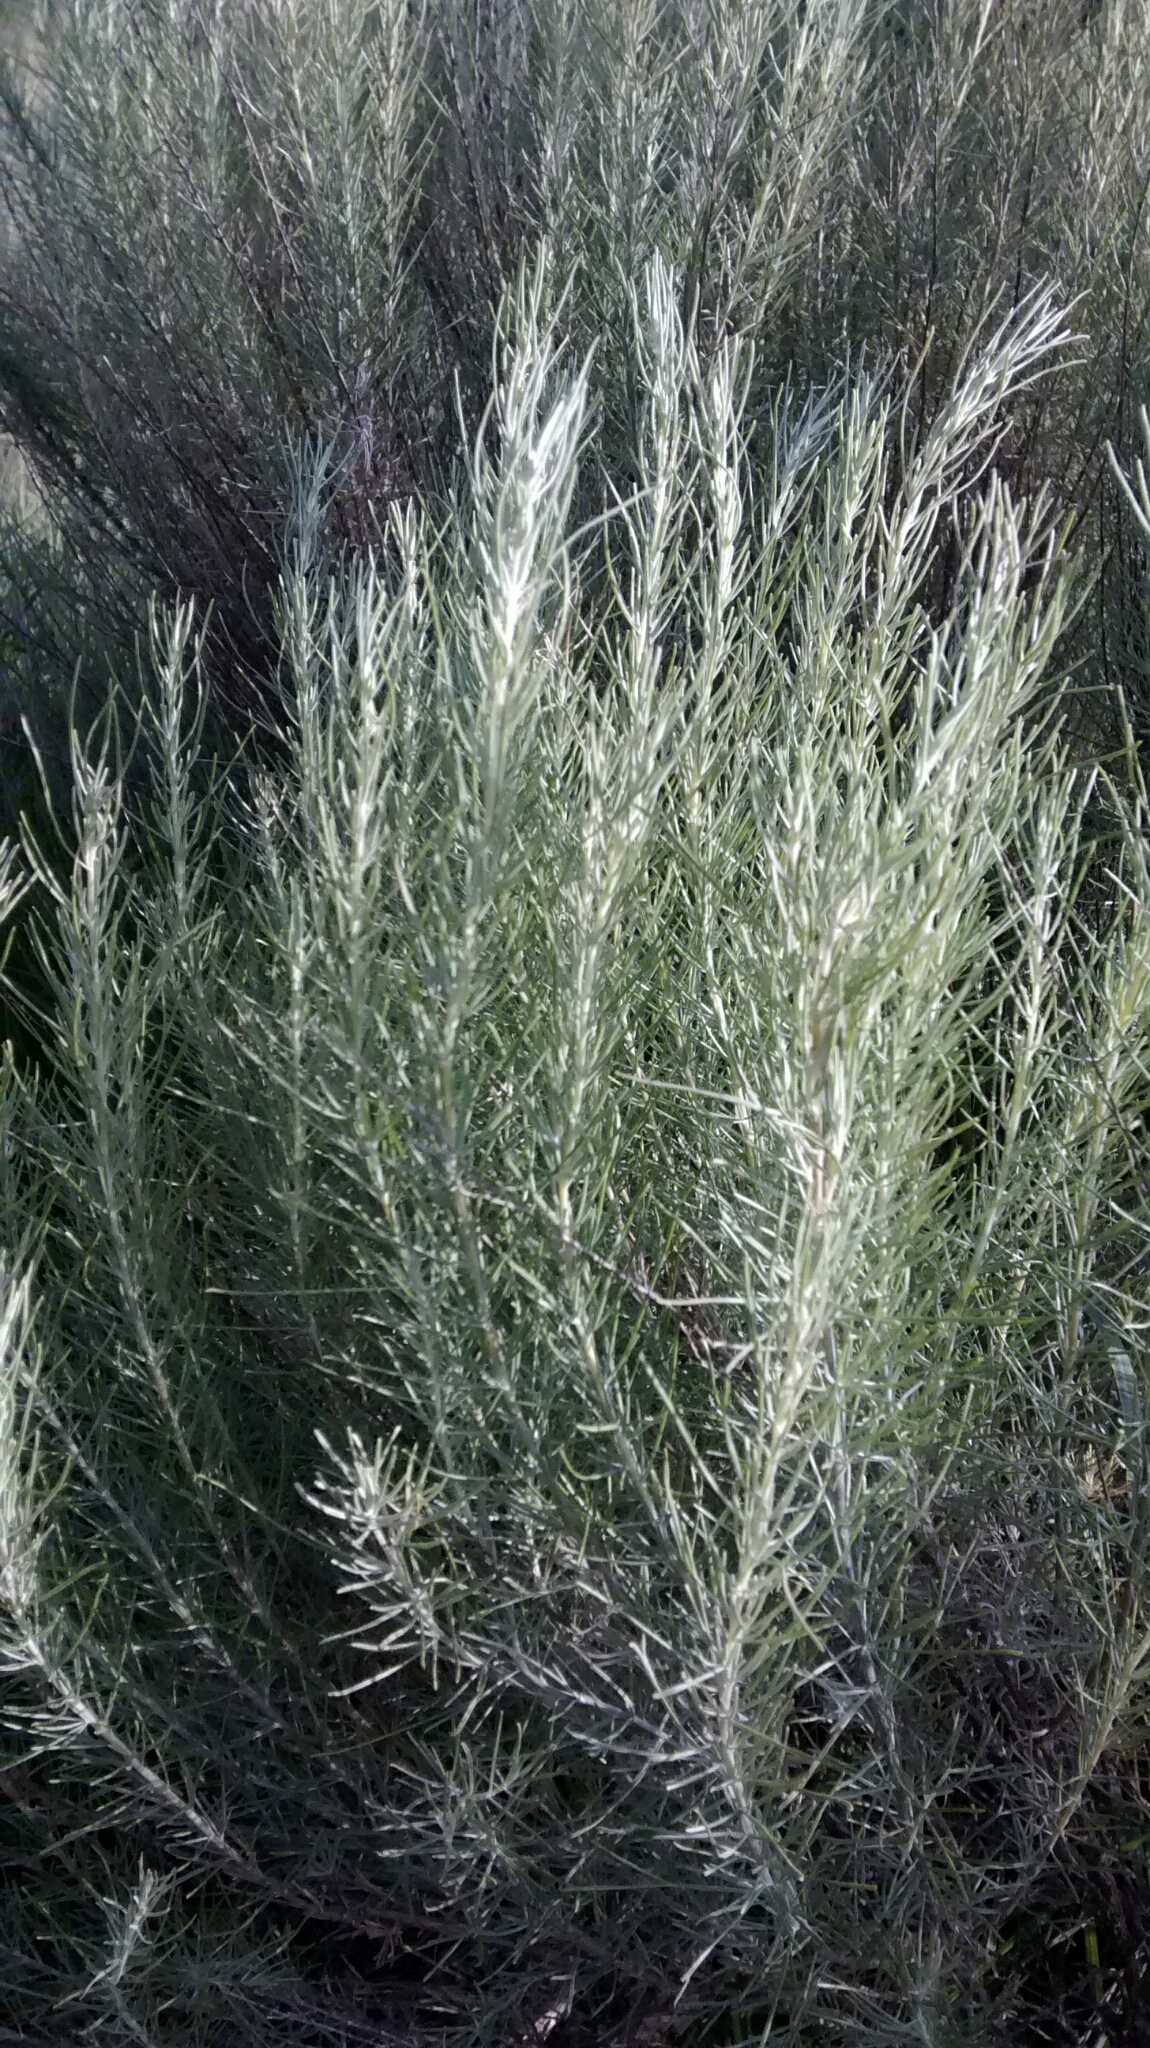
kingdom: Plantae
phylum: Tracheophyta
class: Magnoliopsida
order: Asterales
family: Asteraceae
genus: Artemisia
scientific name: Artemisia filifolia
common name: Sand-sage
